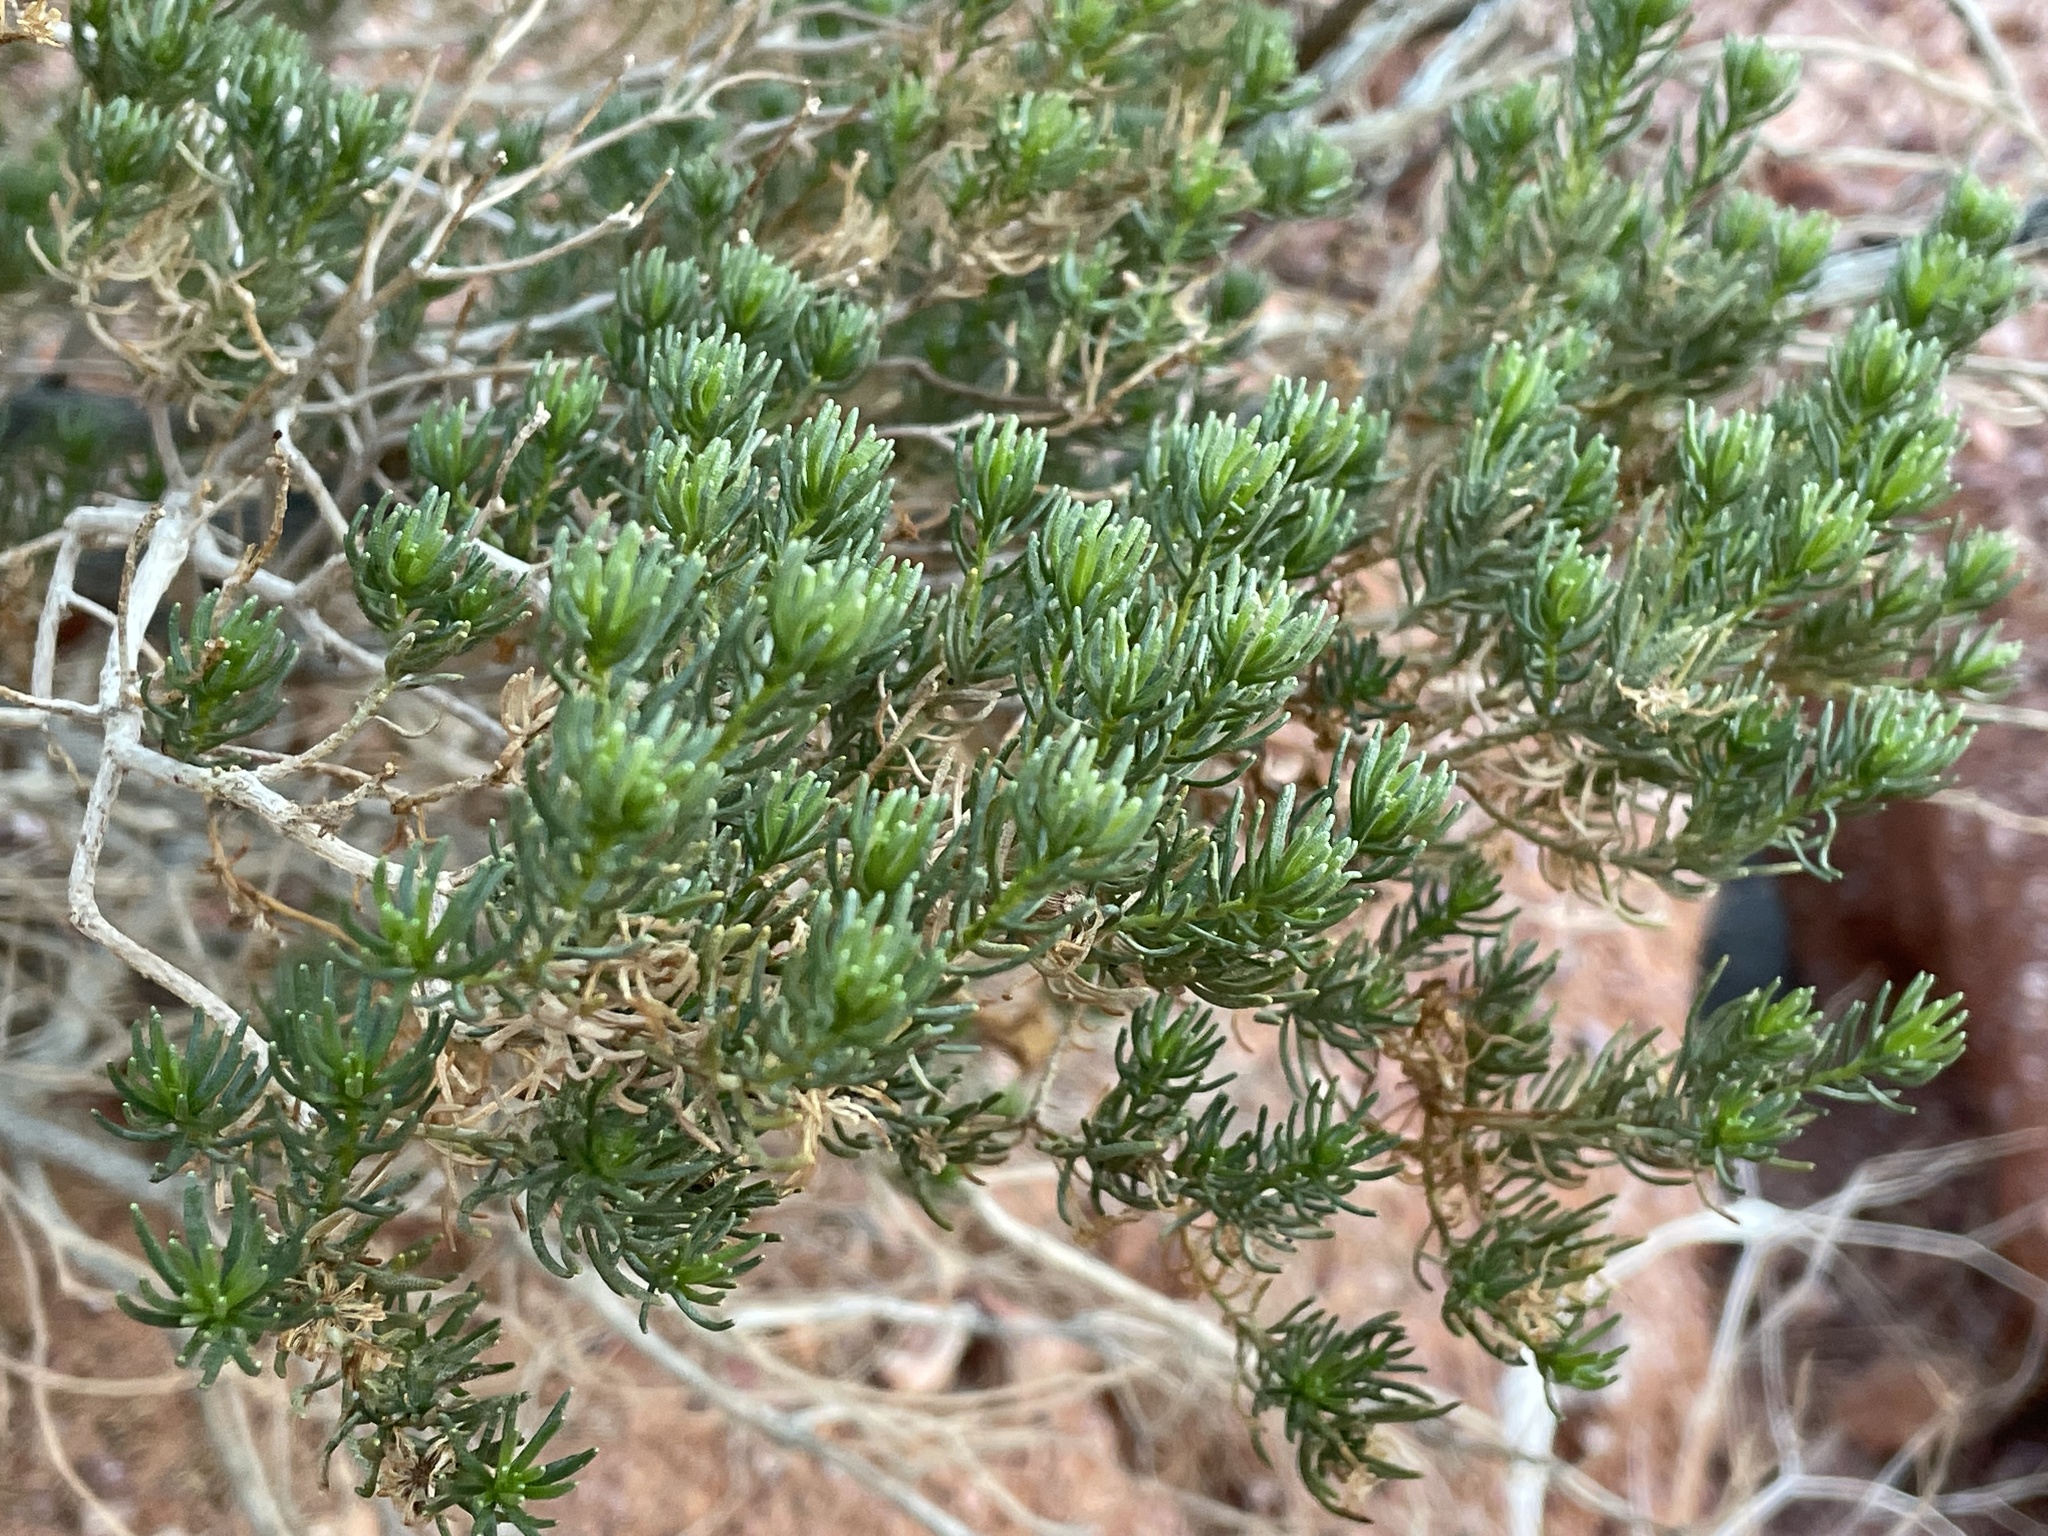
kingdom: Plantae
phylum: Tracheophyta
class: Magnoliopsida
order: Asterales
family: Asteraceae
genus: Peucephyllum
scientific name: Peucephyllum schottii
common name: Pygmy-cedar
